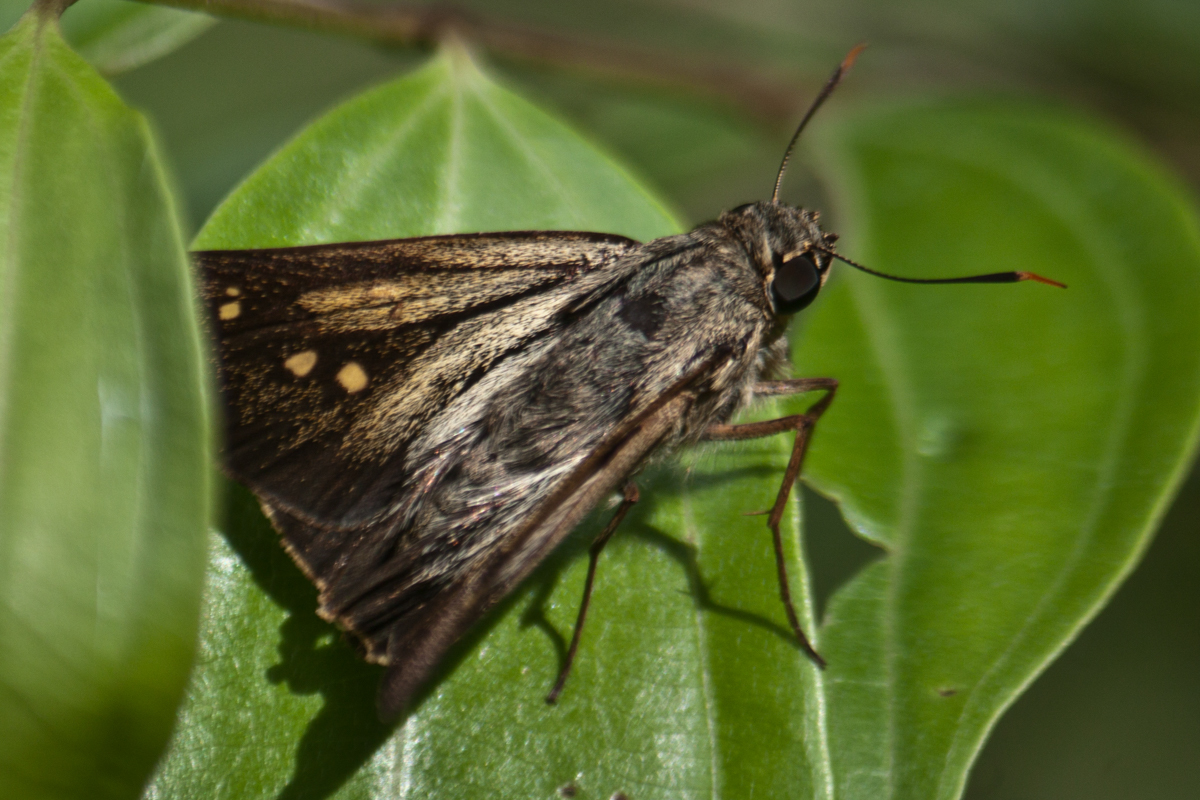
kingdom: Animalia
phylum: Arthropoda
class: Insecta
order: Lepidoptera
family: Hesperiidae
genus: Pithauria
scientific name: Pithauria stramineipennis
